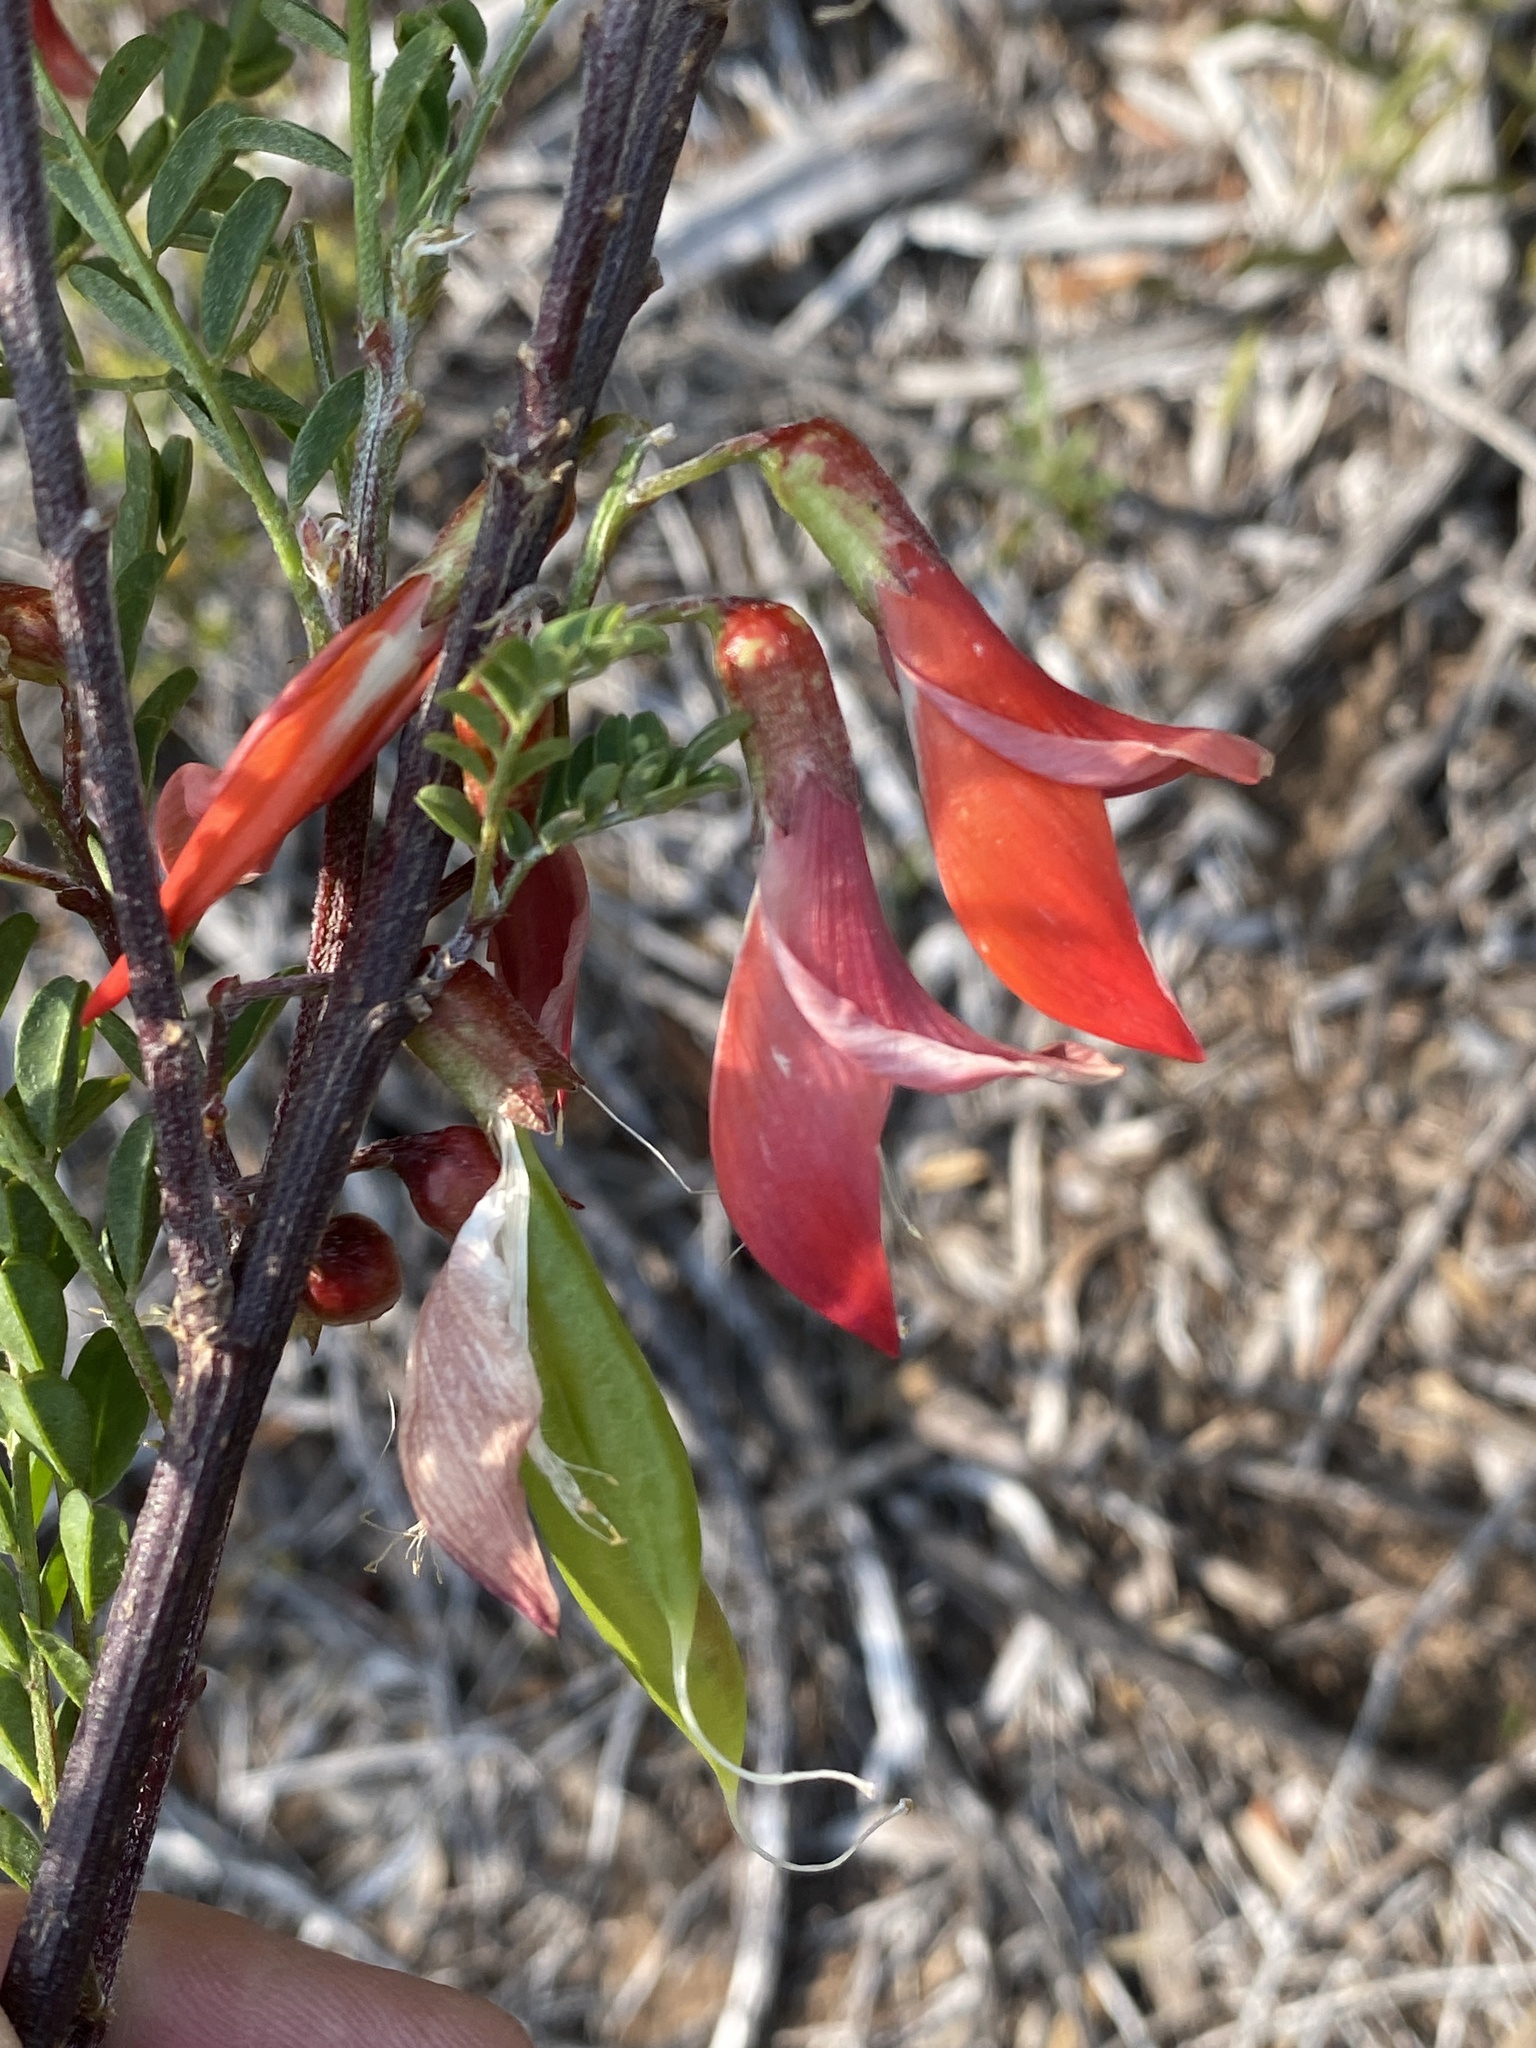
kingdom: Plantae
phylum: Tracheophyta
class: Magnoliopsida
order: Fabales
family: Fabaceae
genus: Lessertia
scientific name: Lessertia frutescens
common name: Balloon-pea
